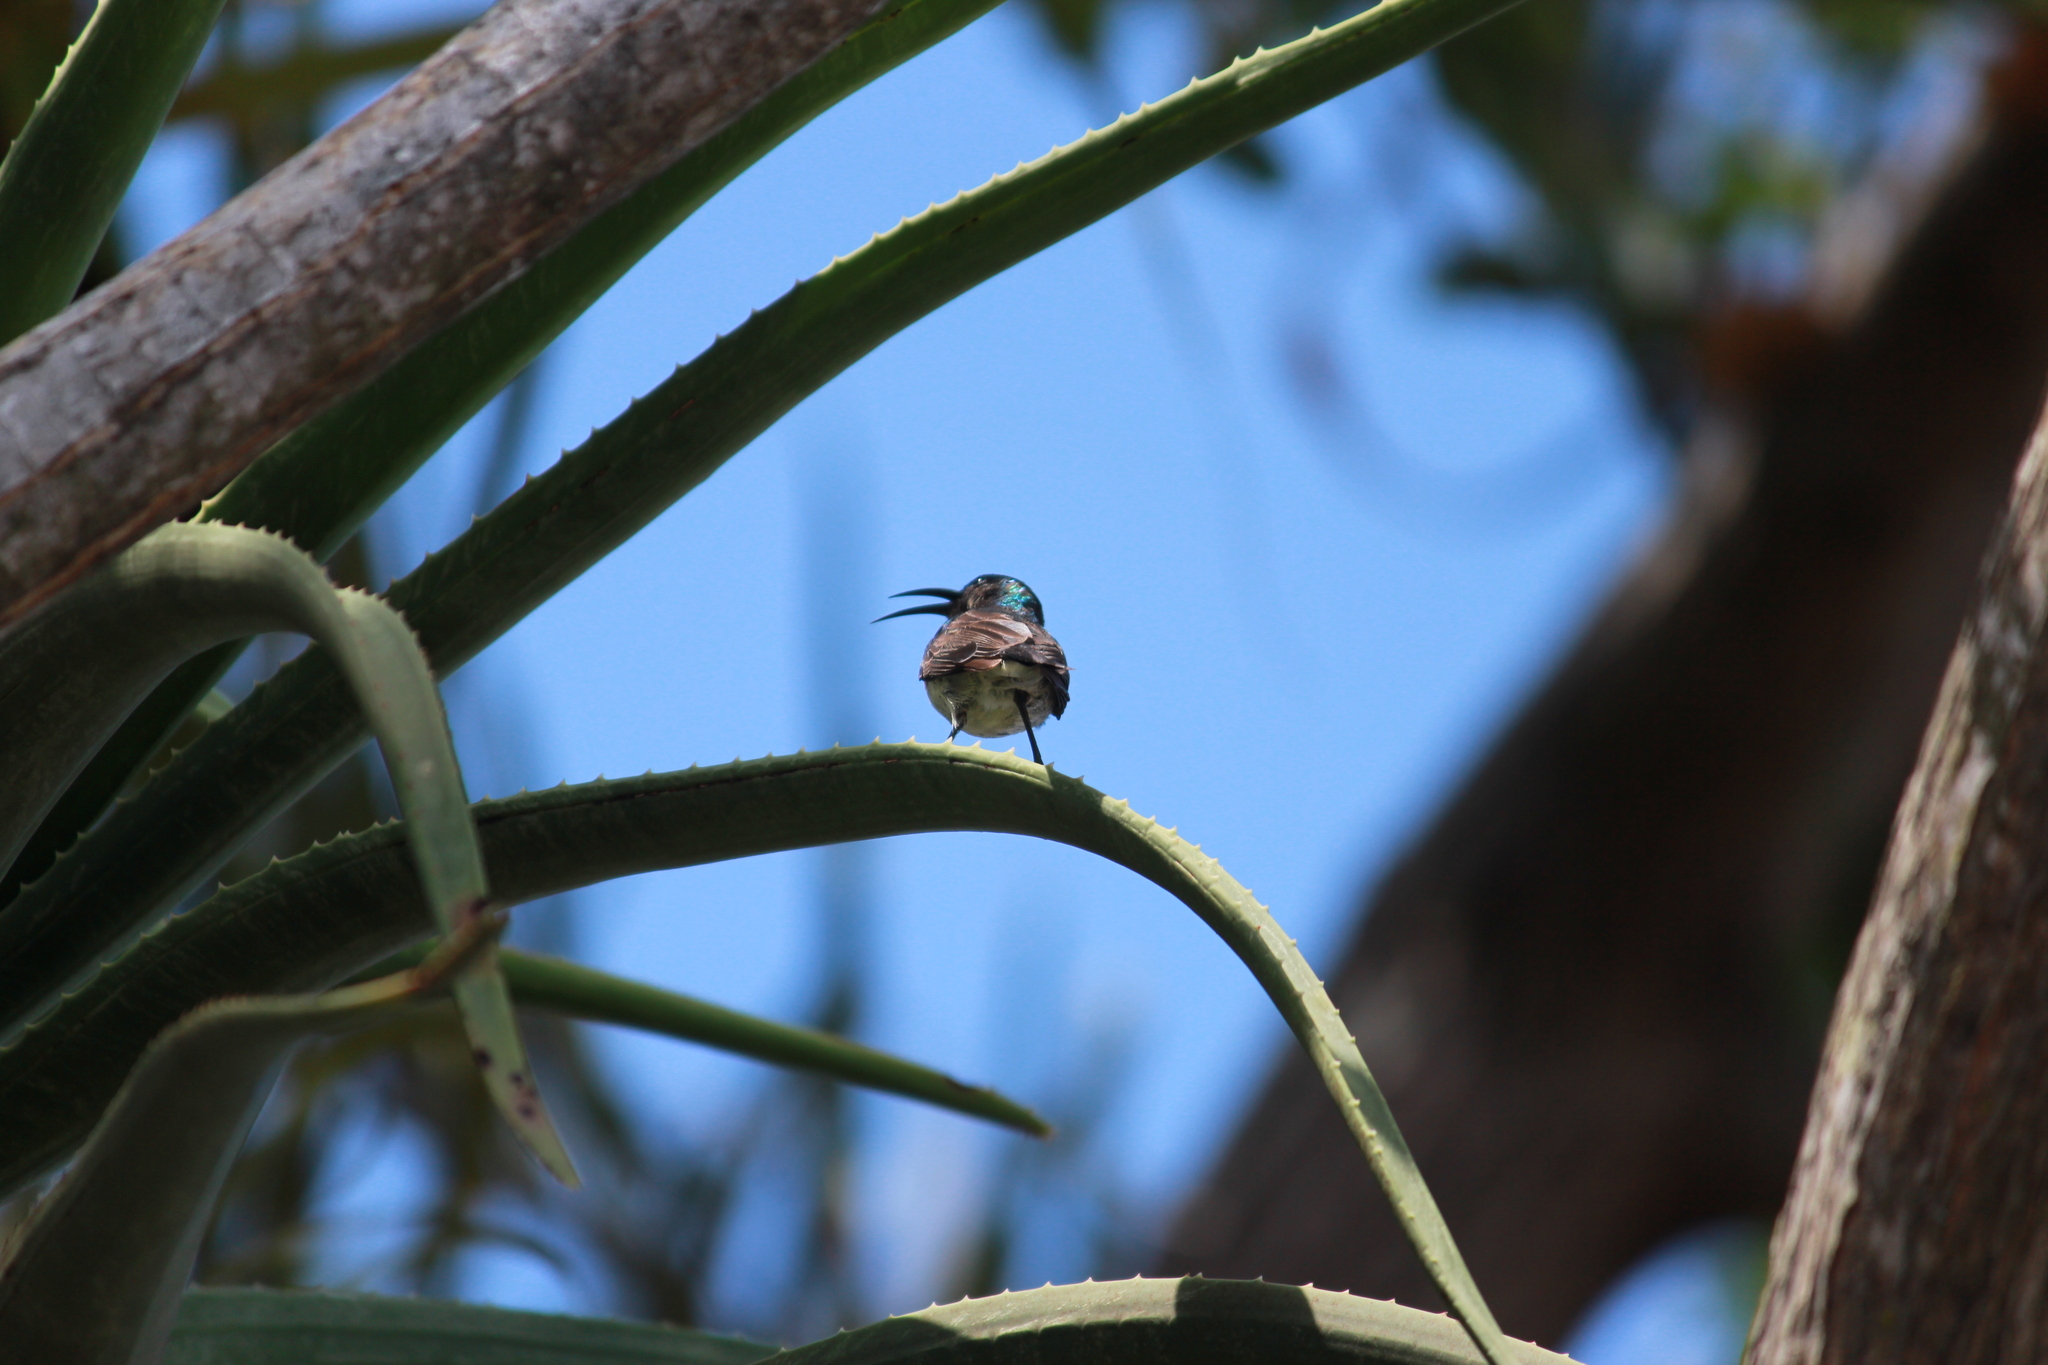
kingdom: Animalia
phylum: Chordata
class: Aves
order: Passeriformes
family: Nectariniidae
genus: Cinnyris
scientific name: Cinnyris talatala
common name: White-bellied sunbird
